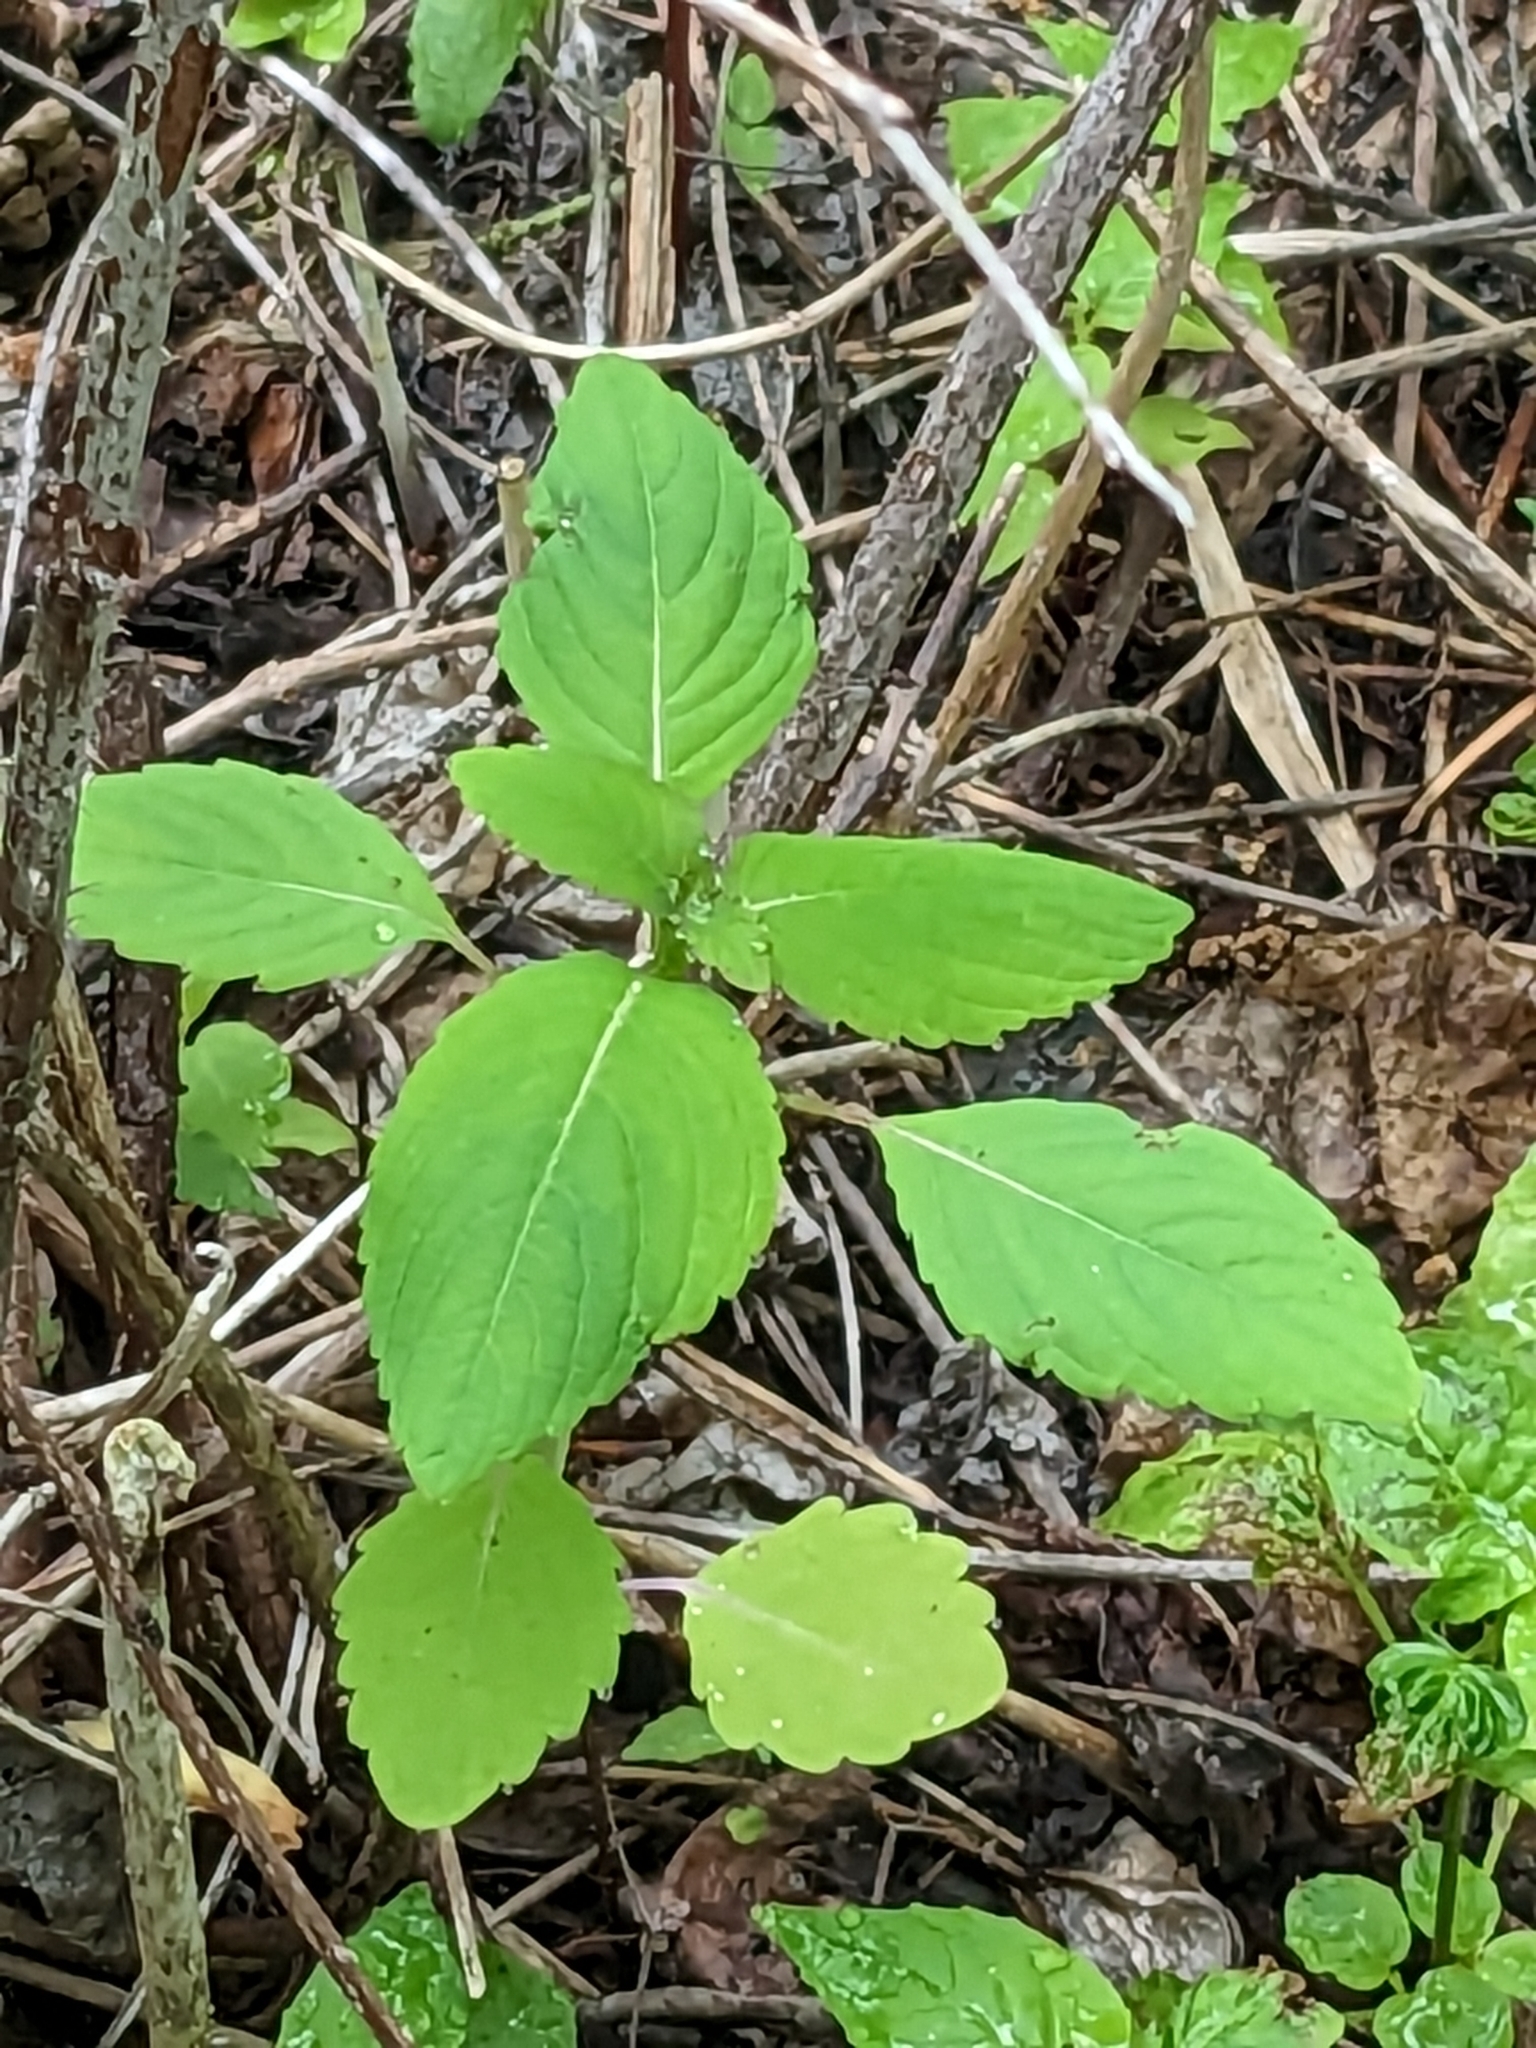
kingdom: Plantae
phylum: Tracheophyta
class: Magnoliopsida
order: Ericales
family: Balsaminaceae
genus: Impatiens
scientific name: Impatiens
